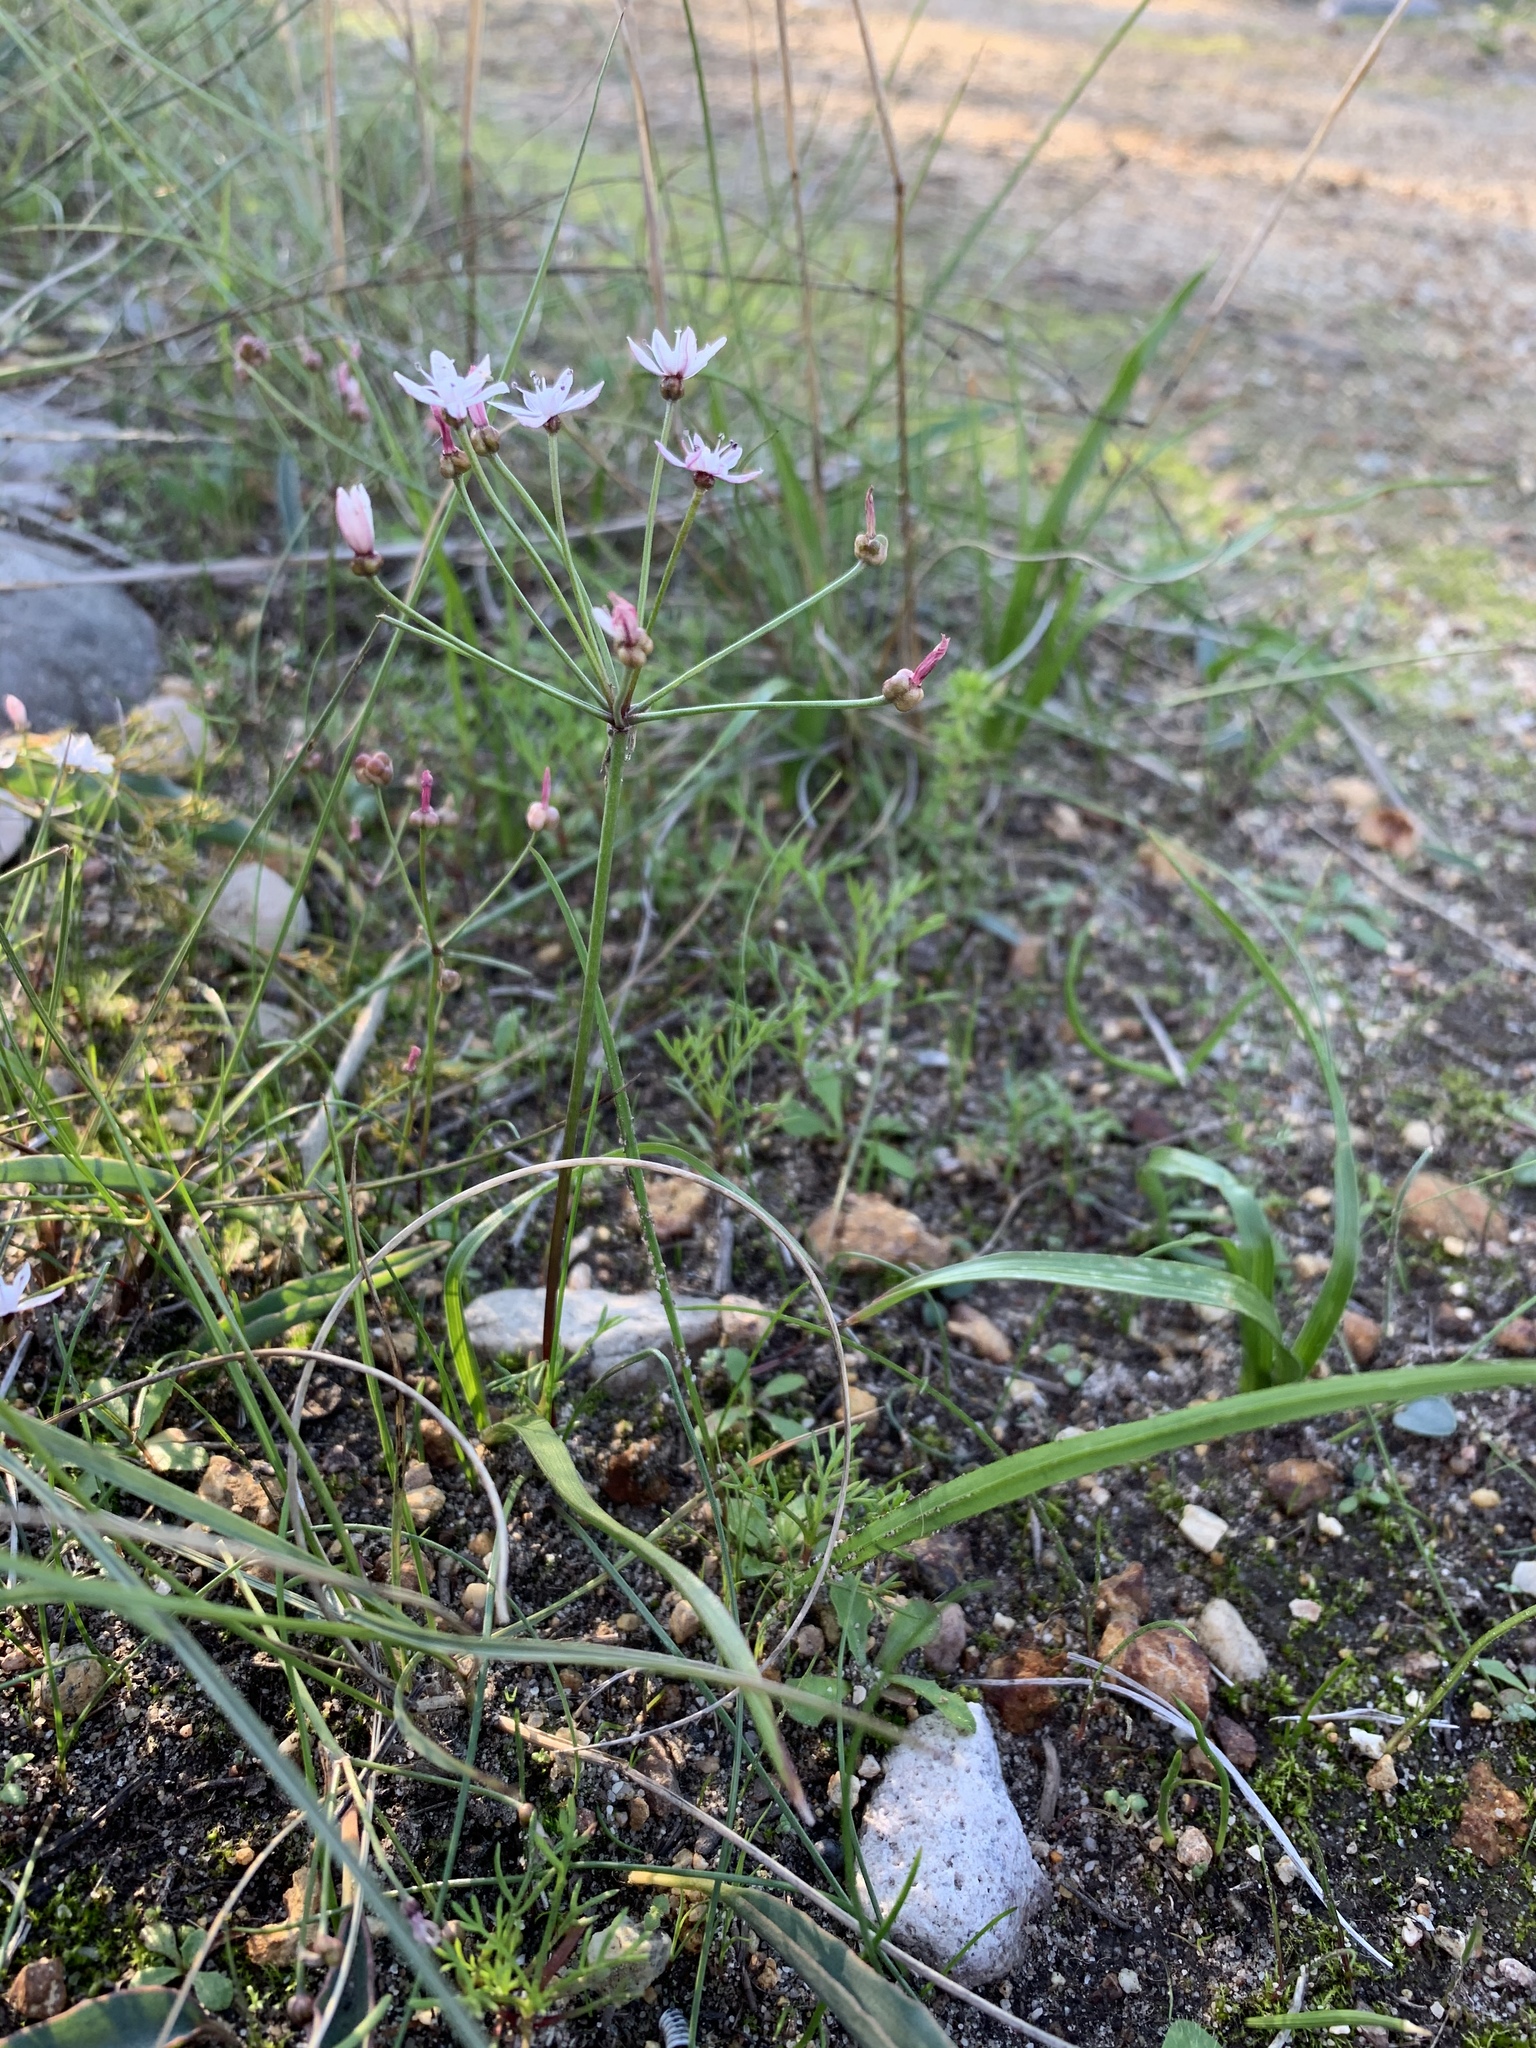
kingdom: Plantae
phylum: Tracheophyta
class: Liliopsida
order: Asparagales
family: Amaryllidaceae
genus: Strumaria
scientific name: Strumaria tenella
